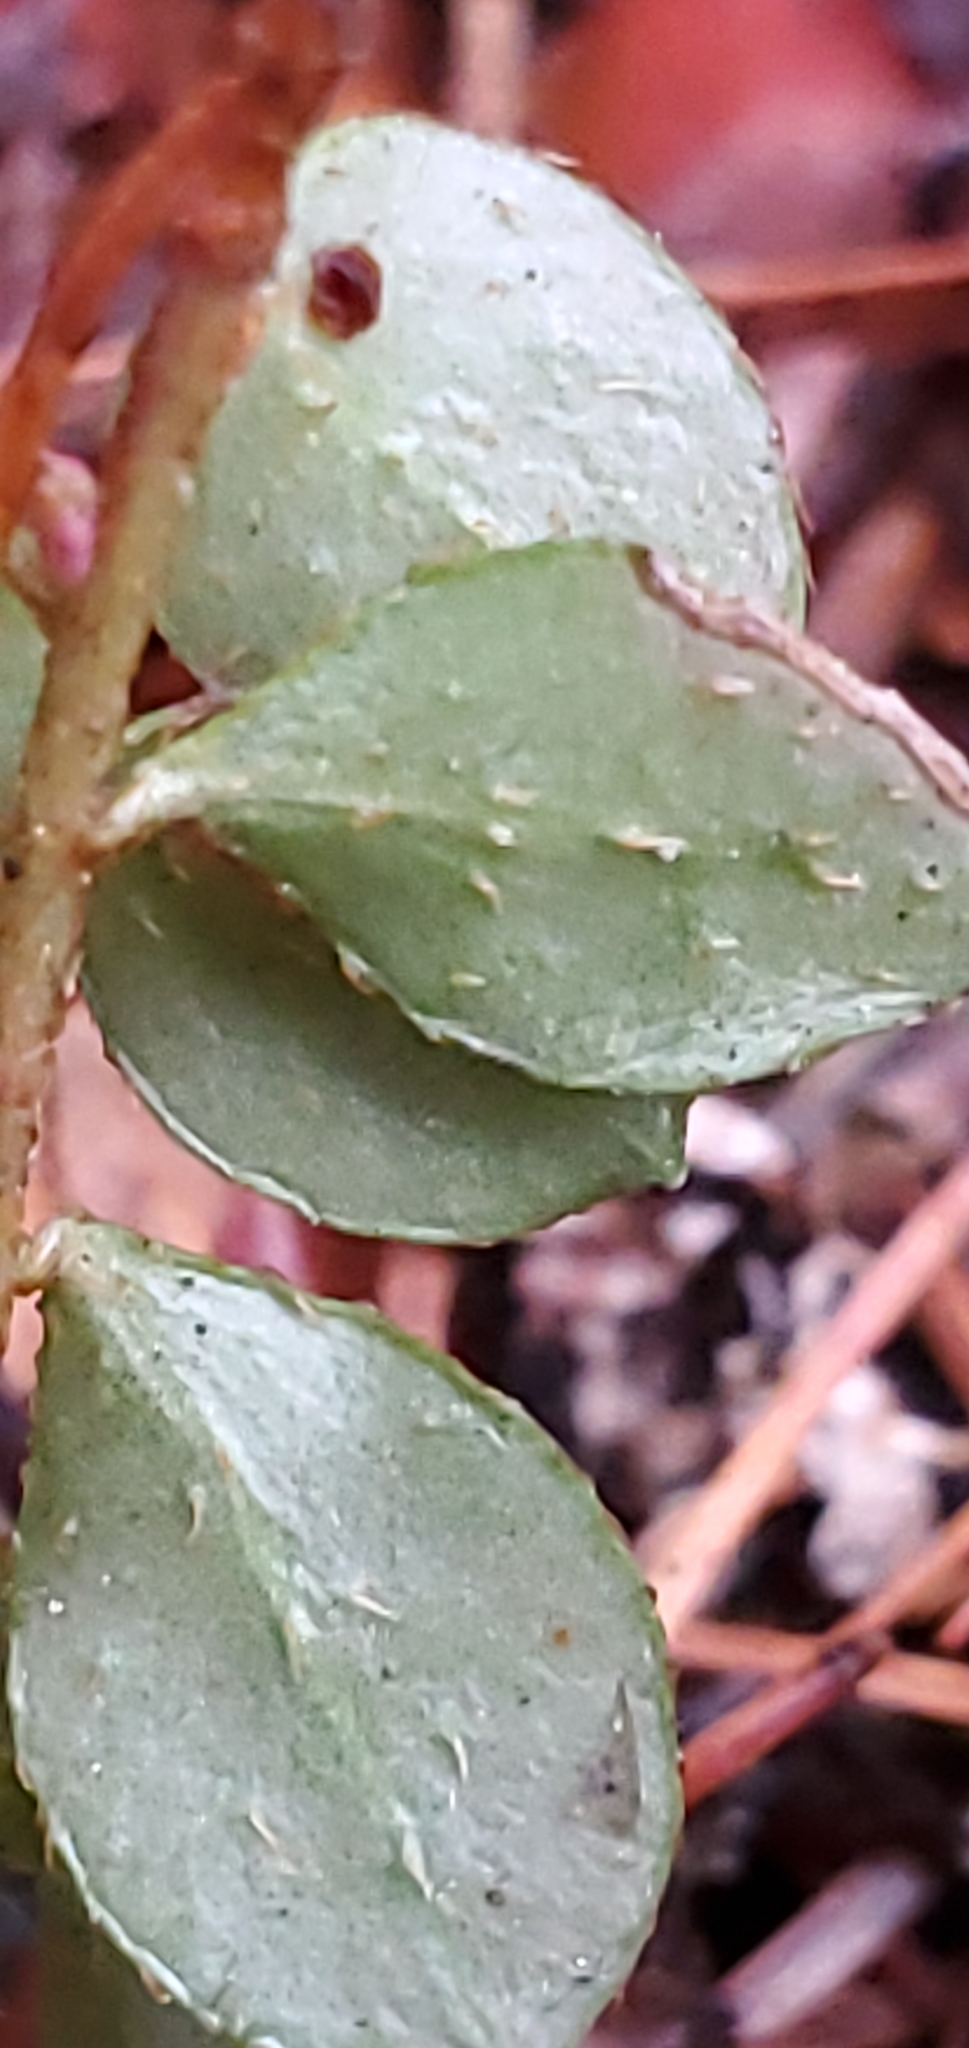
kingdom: Plantae
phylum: Tracheophyta
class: Magnoliopsida
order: Ericales
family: Ericaceae
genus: Gaultheria
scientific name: Gaultheria hispidula
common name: Cancer wintergreen
